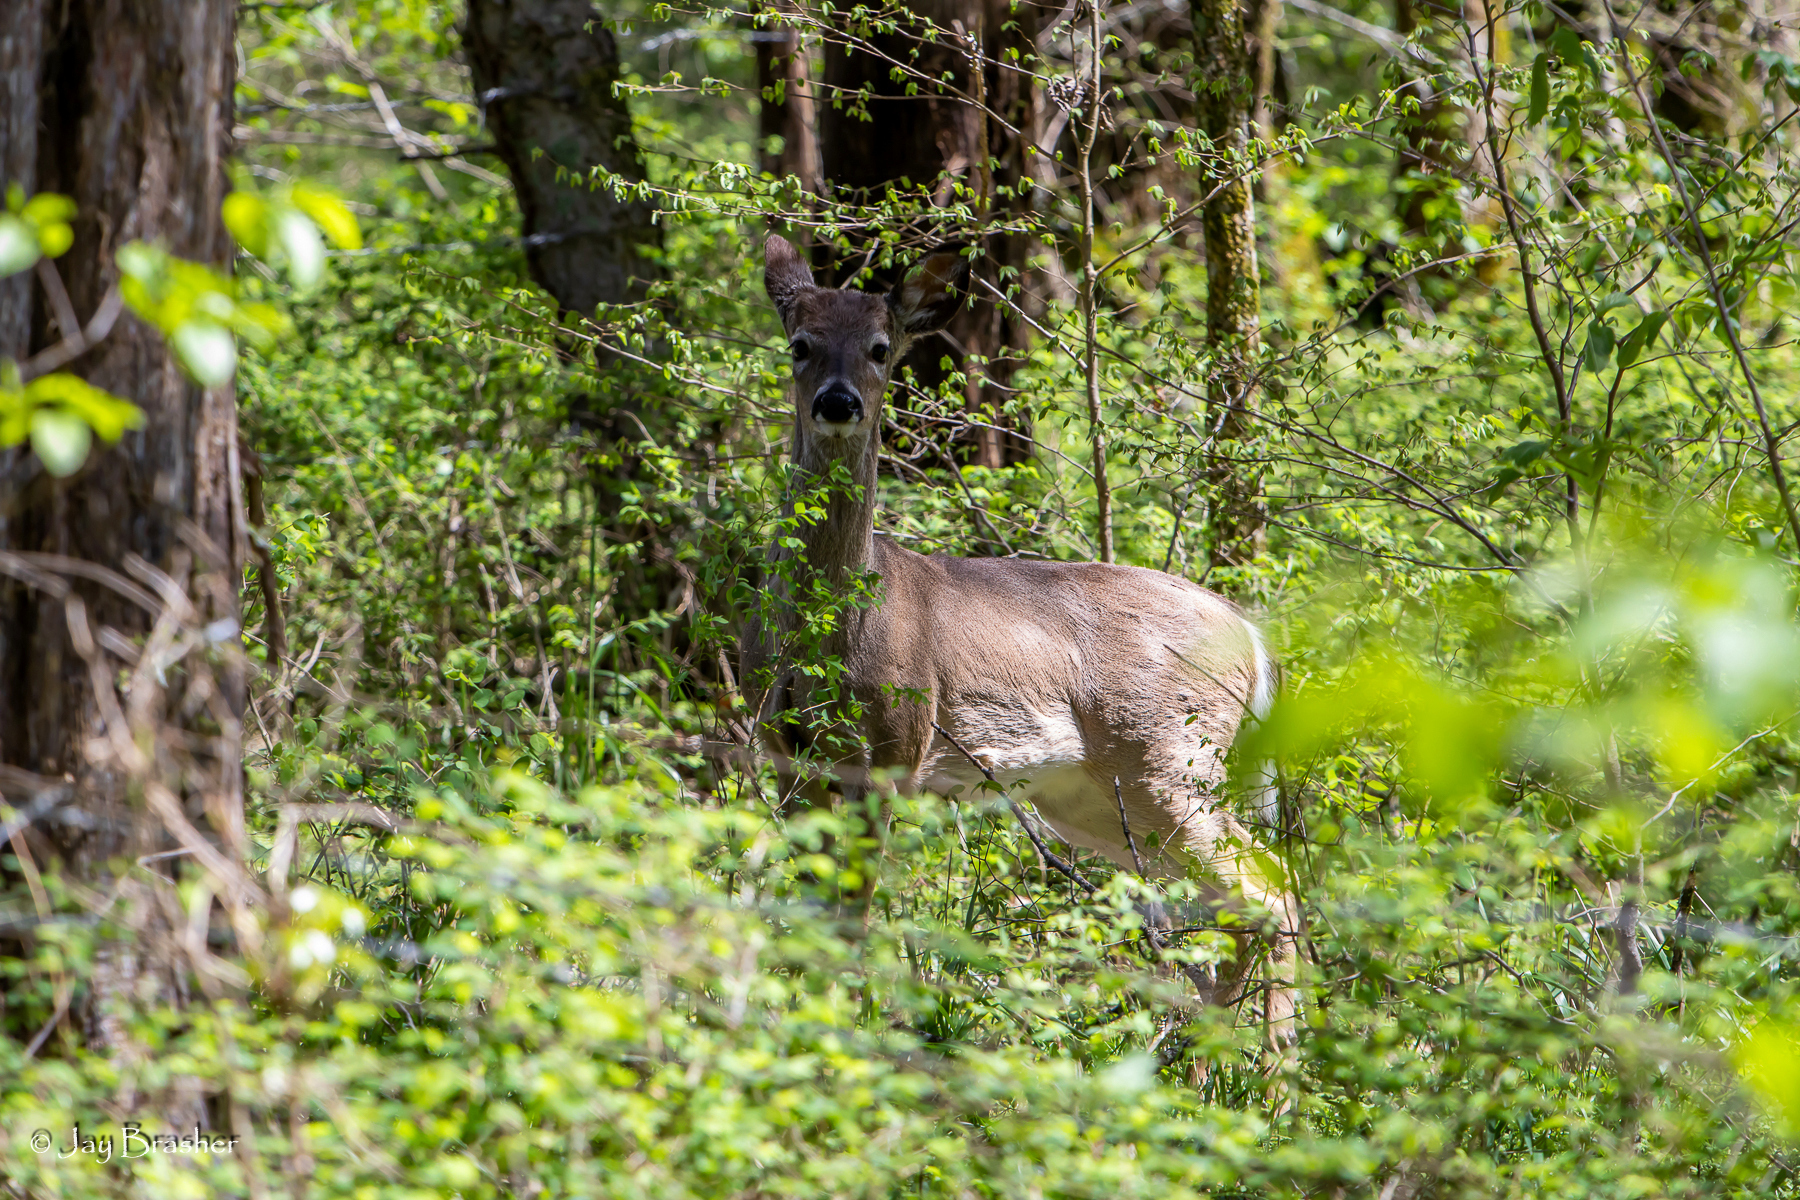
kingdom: Animalia
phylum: Chordata
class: Mammalia
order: Artiodactyla
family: Cervidae
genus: Odocoileus
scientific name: Odocoileus virginianus
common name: White-tailed deer
